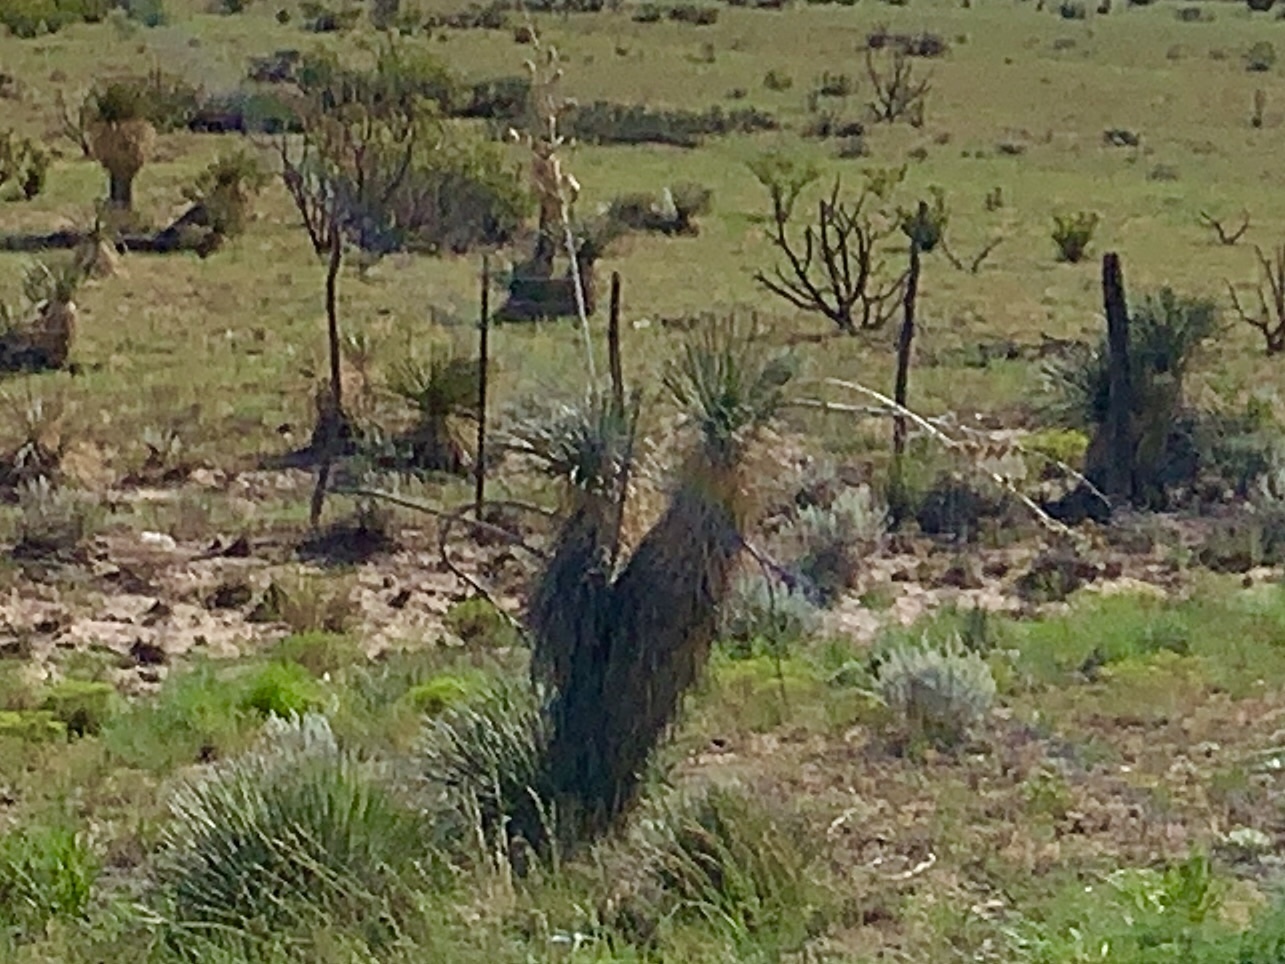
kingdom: Plantae
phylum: Tracheophyta
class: Liliopsida
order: Asparagales
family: Asparagaceae
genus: Yucca
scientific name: Yucca elata
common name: Palmella
